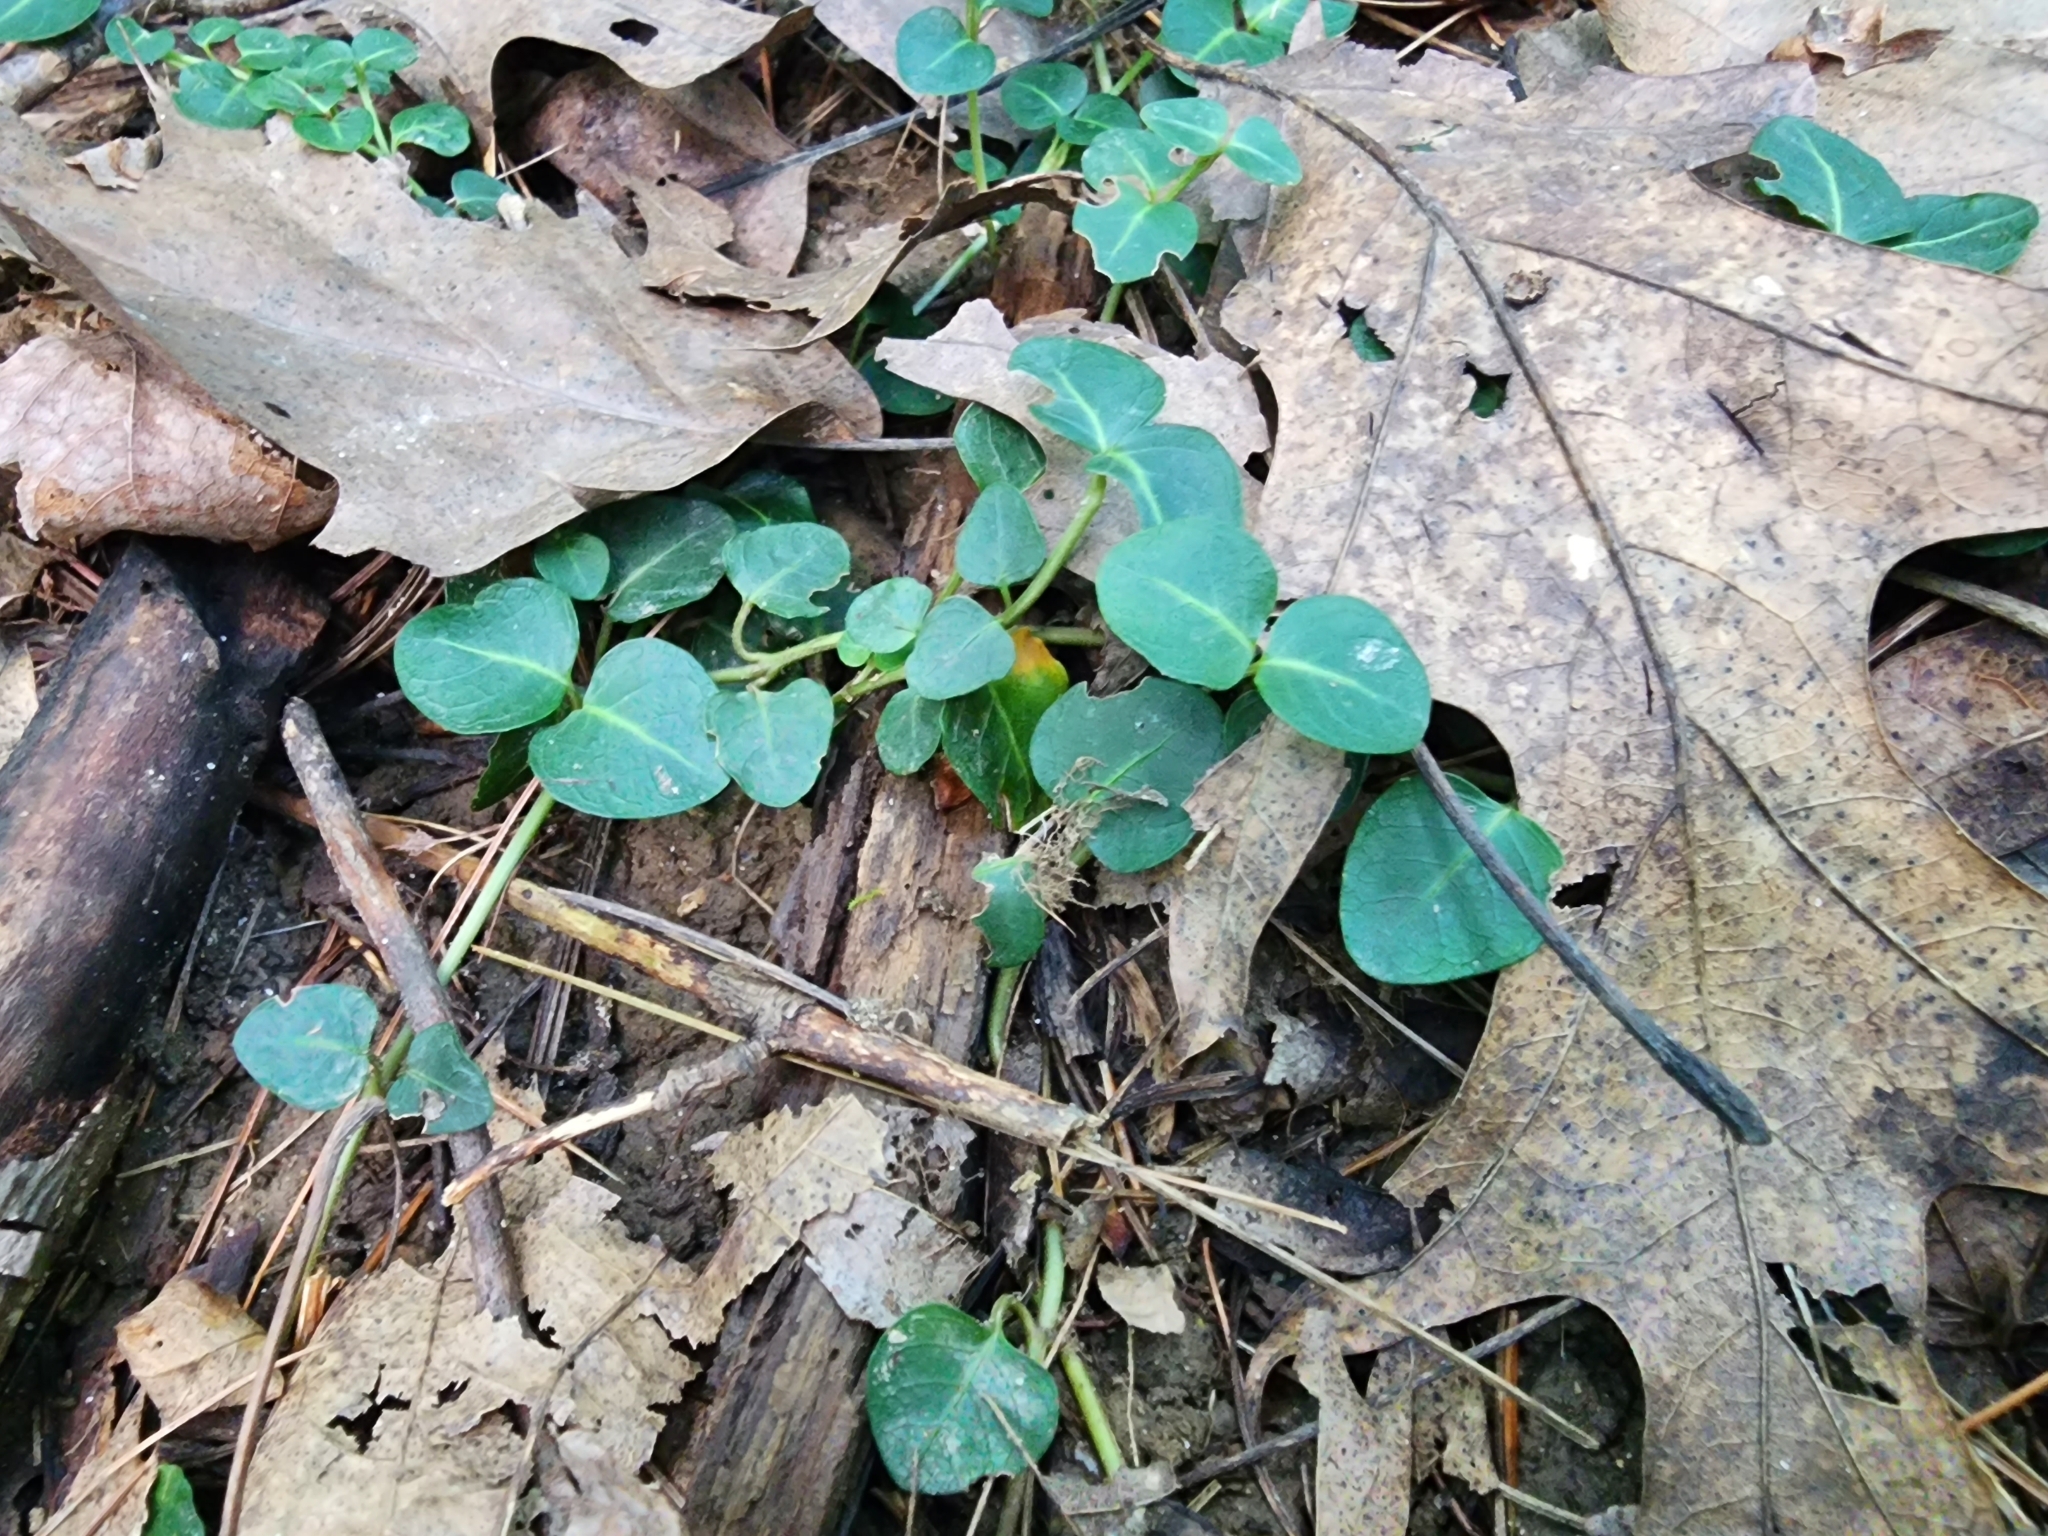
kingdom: Plantae
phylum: Tracheophyta
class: Magnoliopsida
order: Gentianales
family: Rubiaceae
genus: Mitchella
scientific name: Mitchella repens
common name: Partridge-berry
